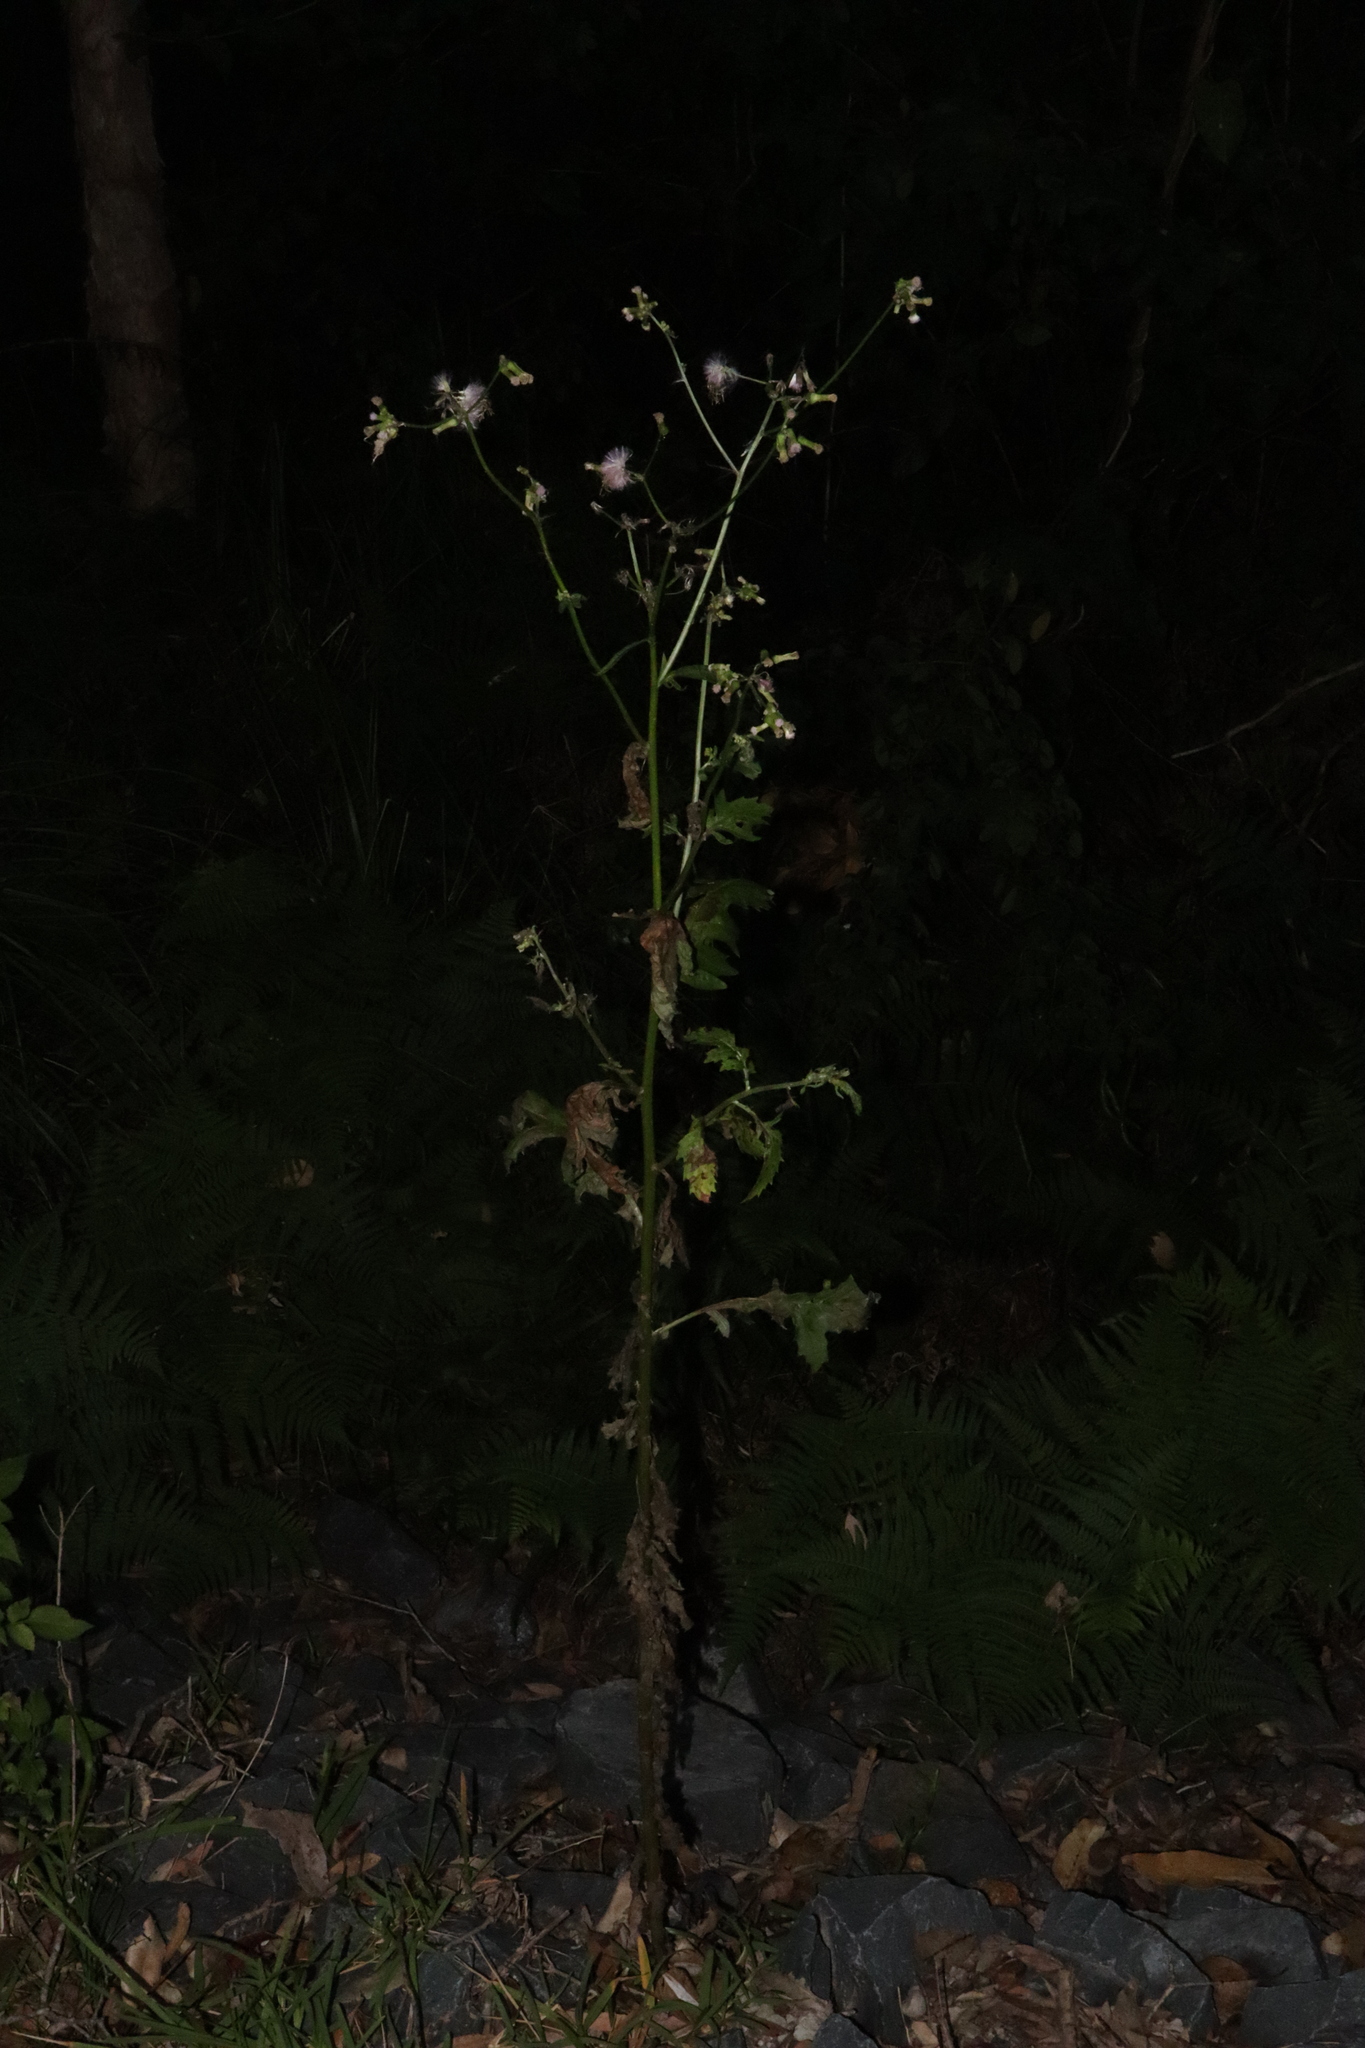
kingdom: Plantae
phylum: Tracheophyta
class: Magnoliopsida
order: Asterales
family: Asteraceae
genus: Erechtites
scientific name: Erechtites valerianifolius
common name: Tropical burnweed
